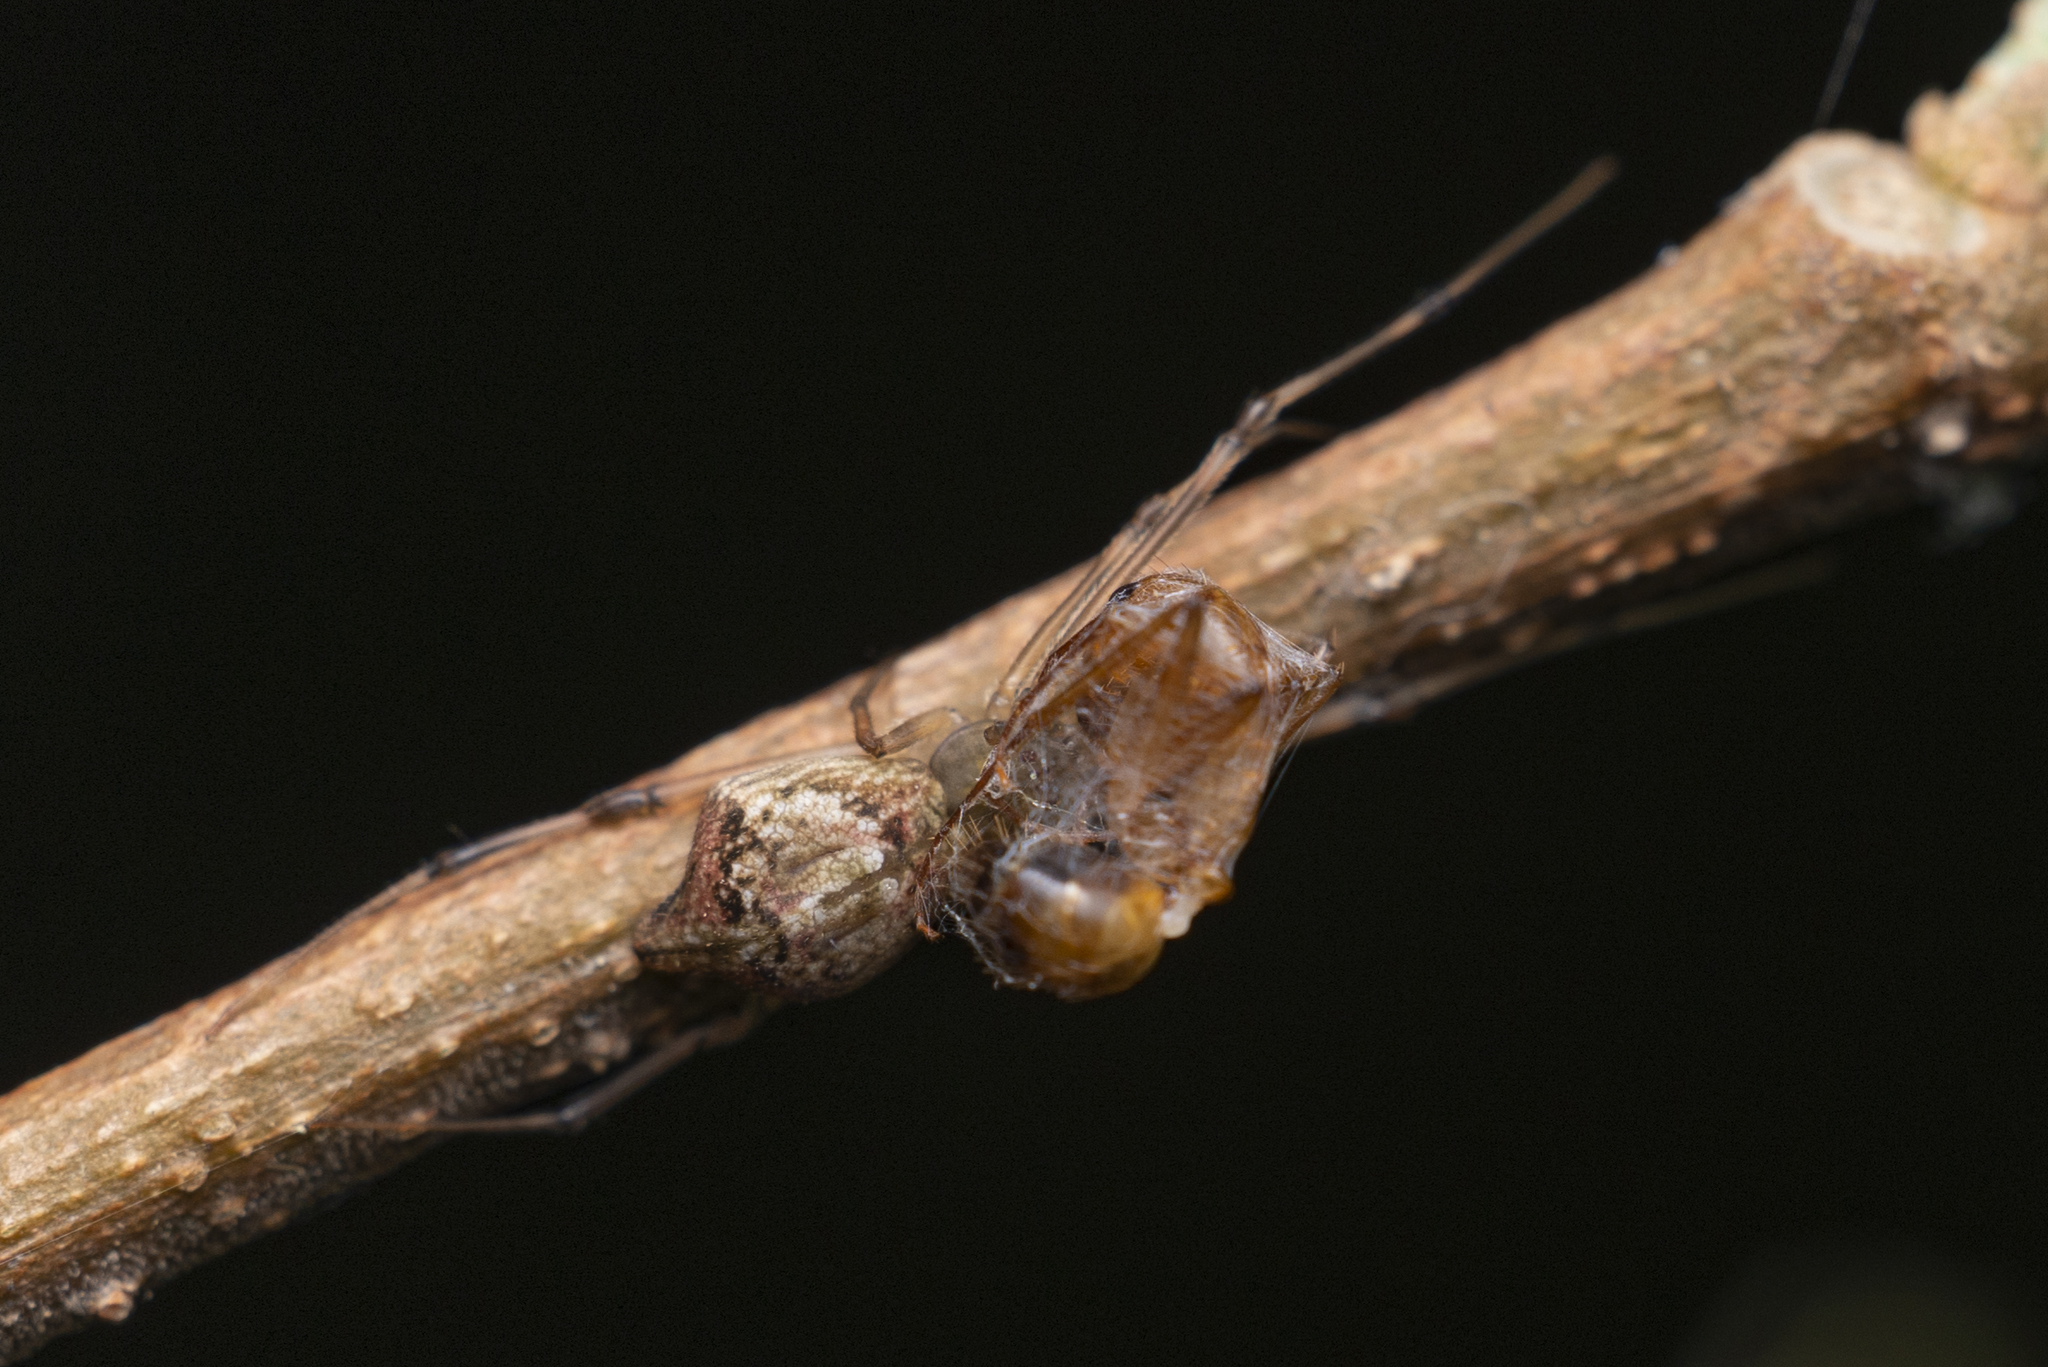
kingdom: Animalia
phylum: Arthropoda
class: Arachnida
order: Araneae
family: Theridiidae
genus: Moneta
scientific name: Moneta mirabilis
